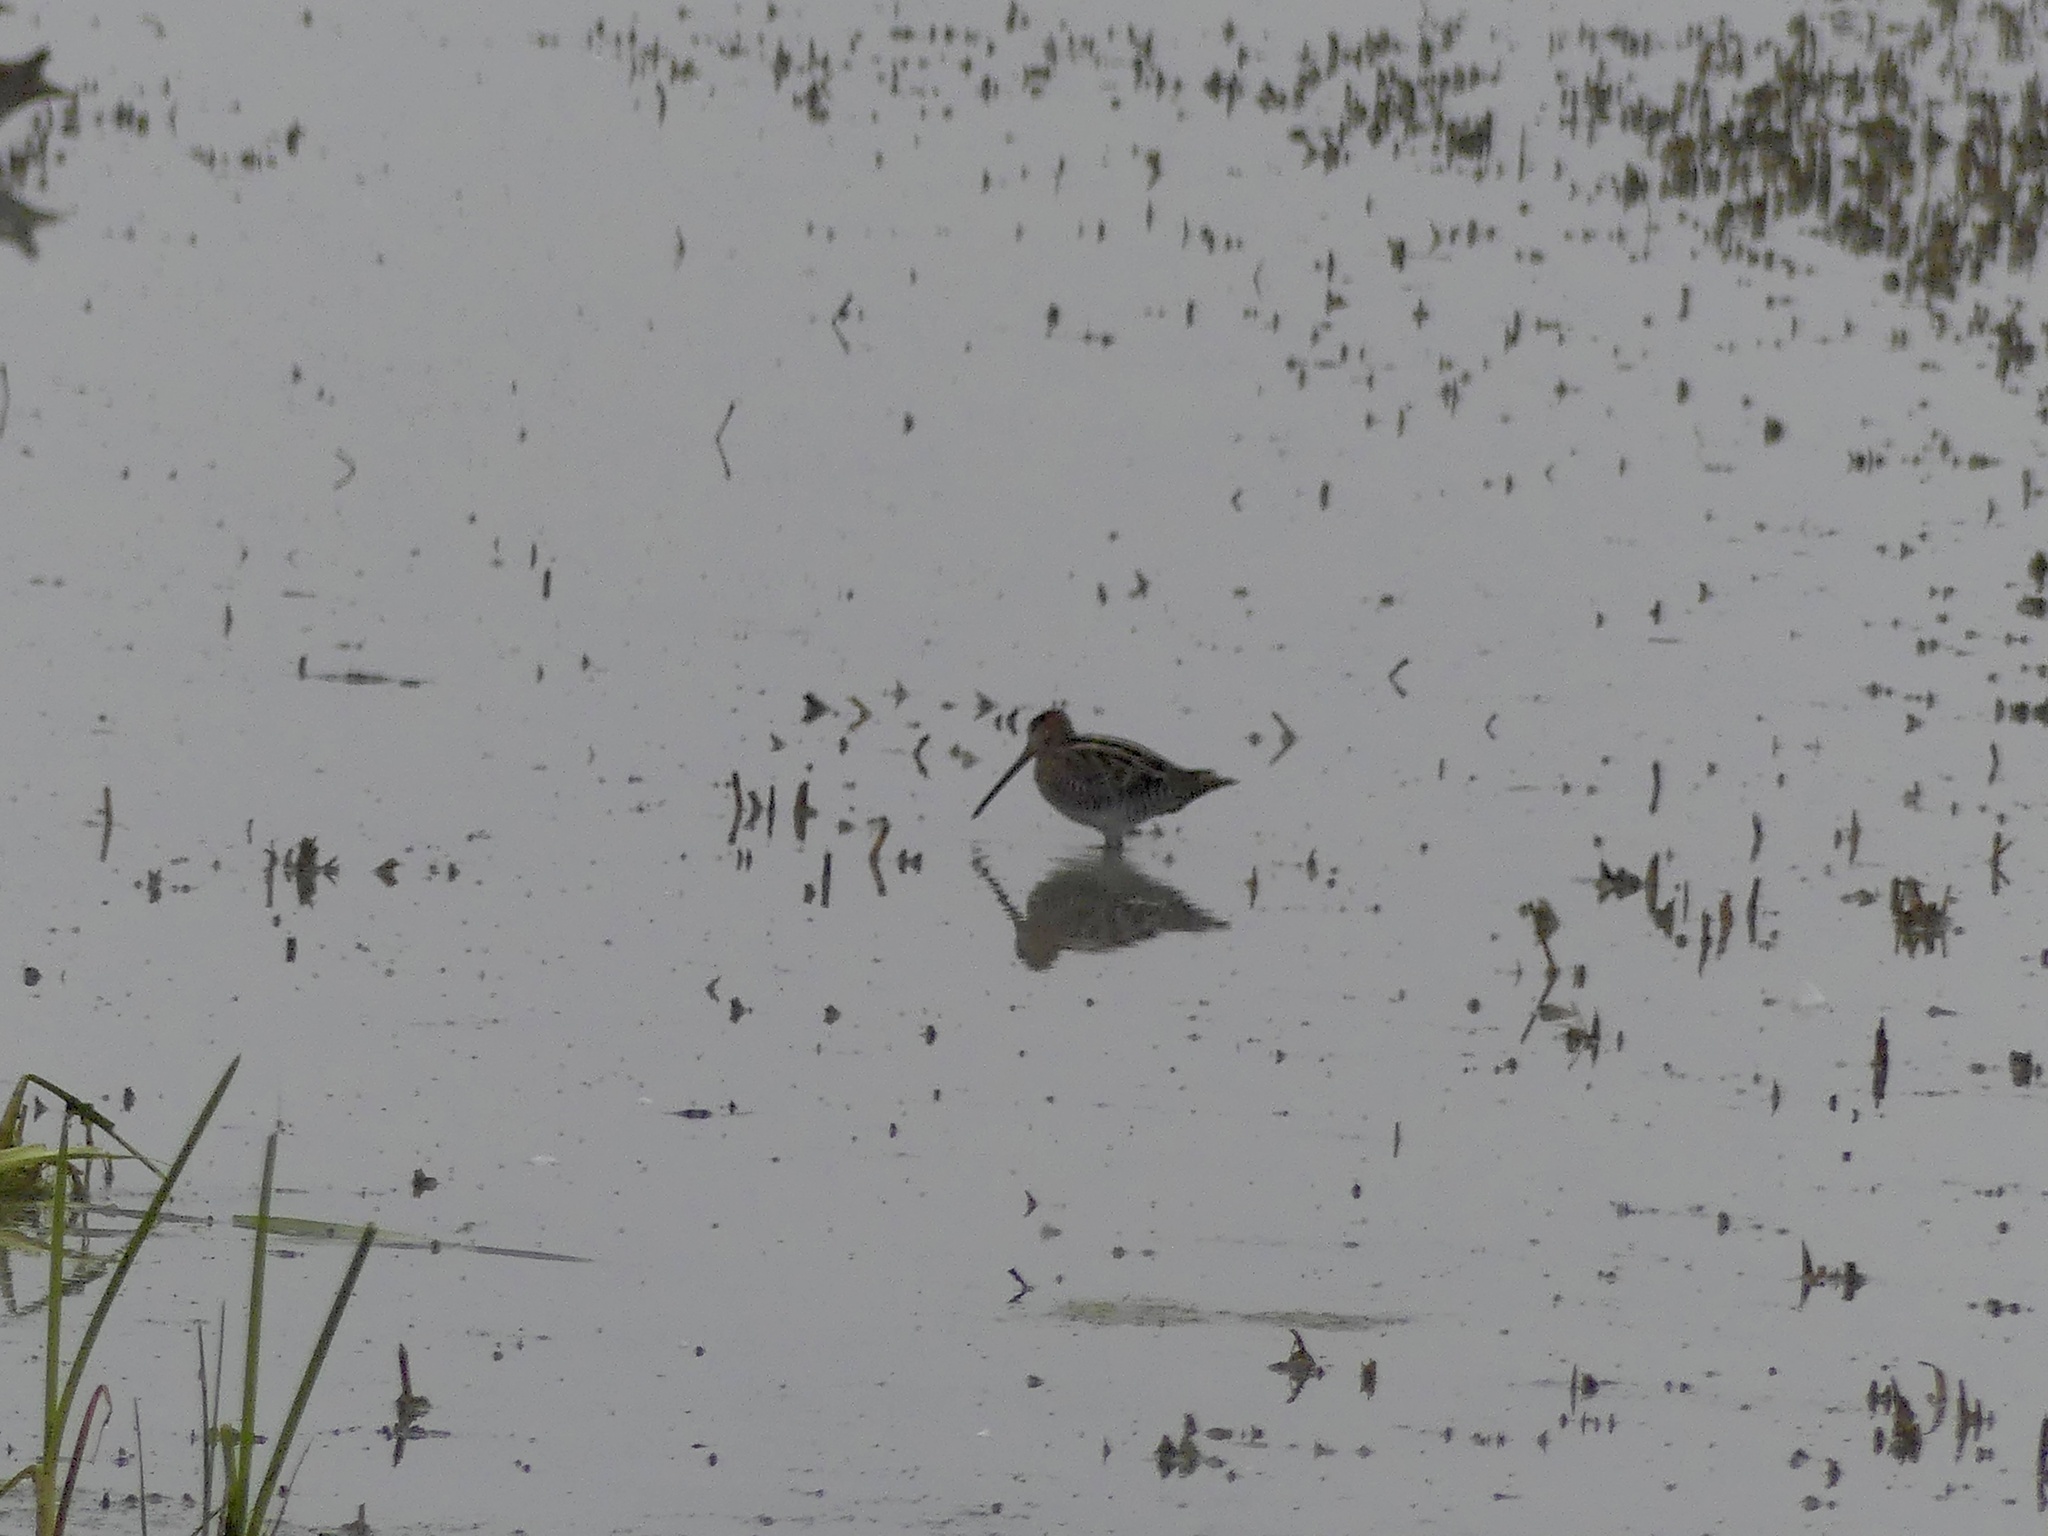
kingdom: Animalia
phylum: Chordata
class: Aves
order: Charadriiformes
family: Scolopacidae
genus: Gallinago
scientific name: Gallinago delicata
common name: Wilson's snipe
